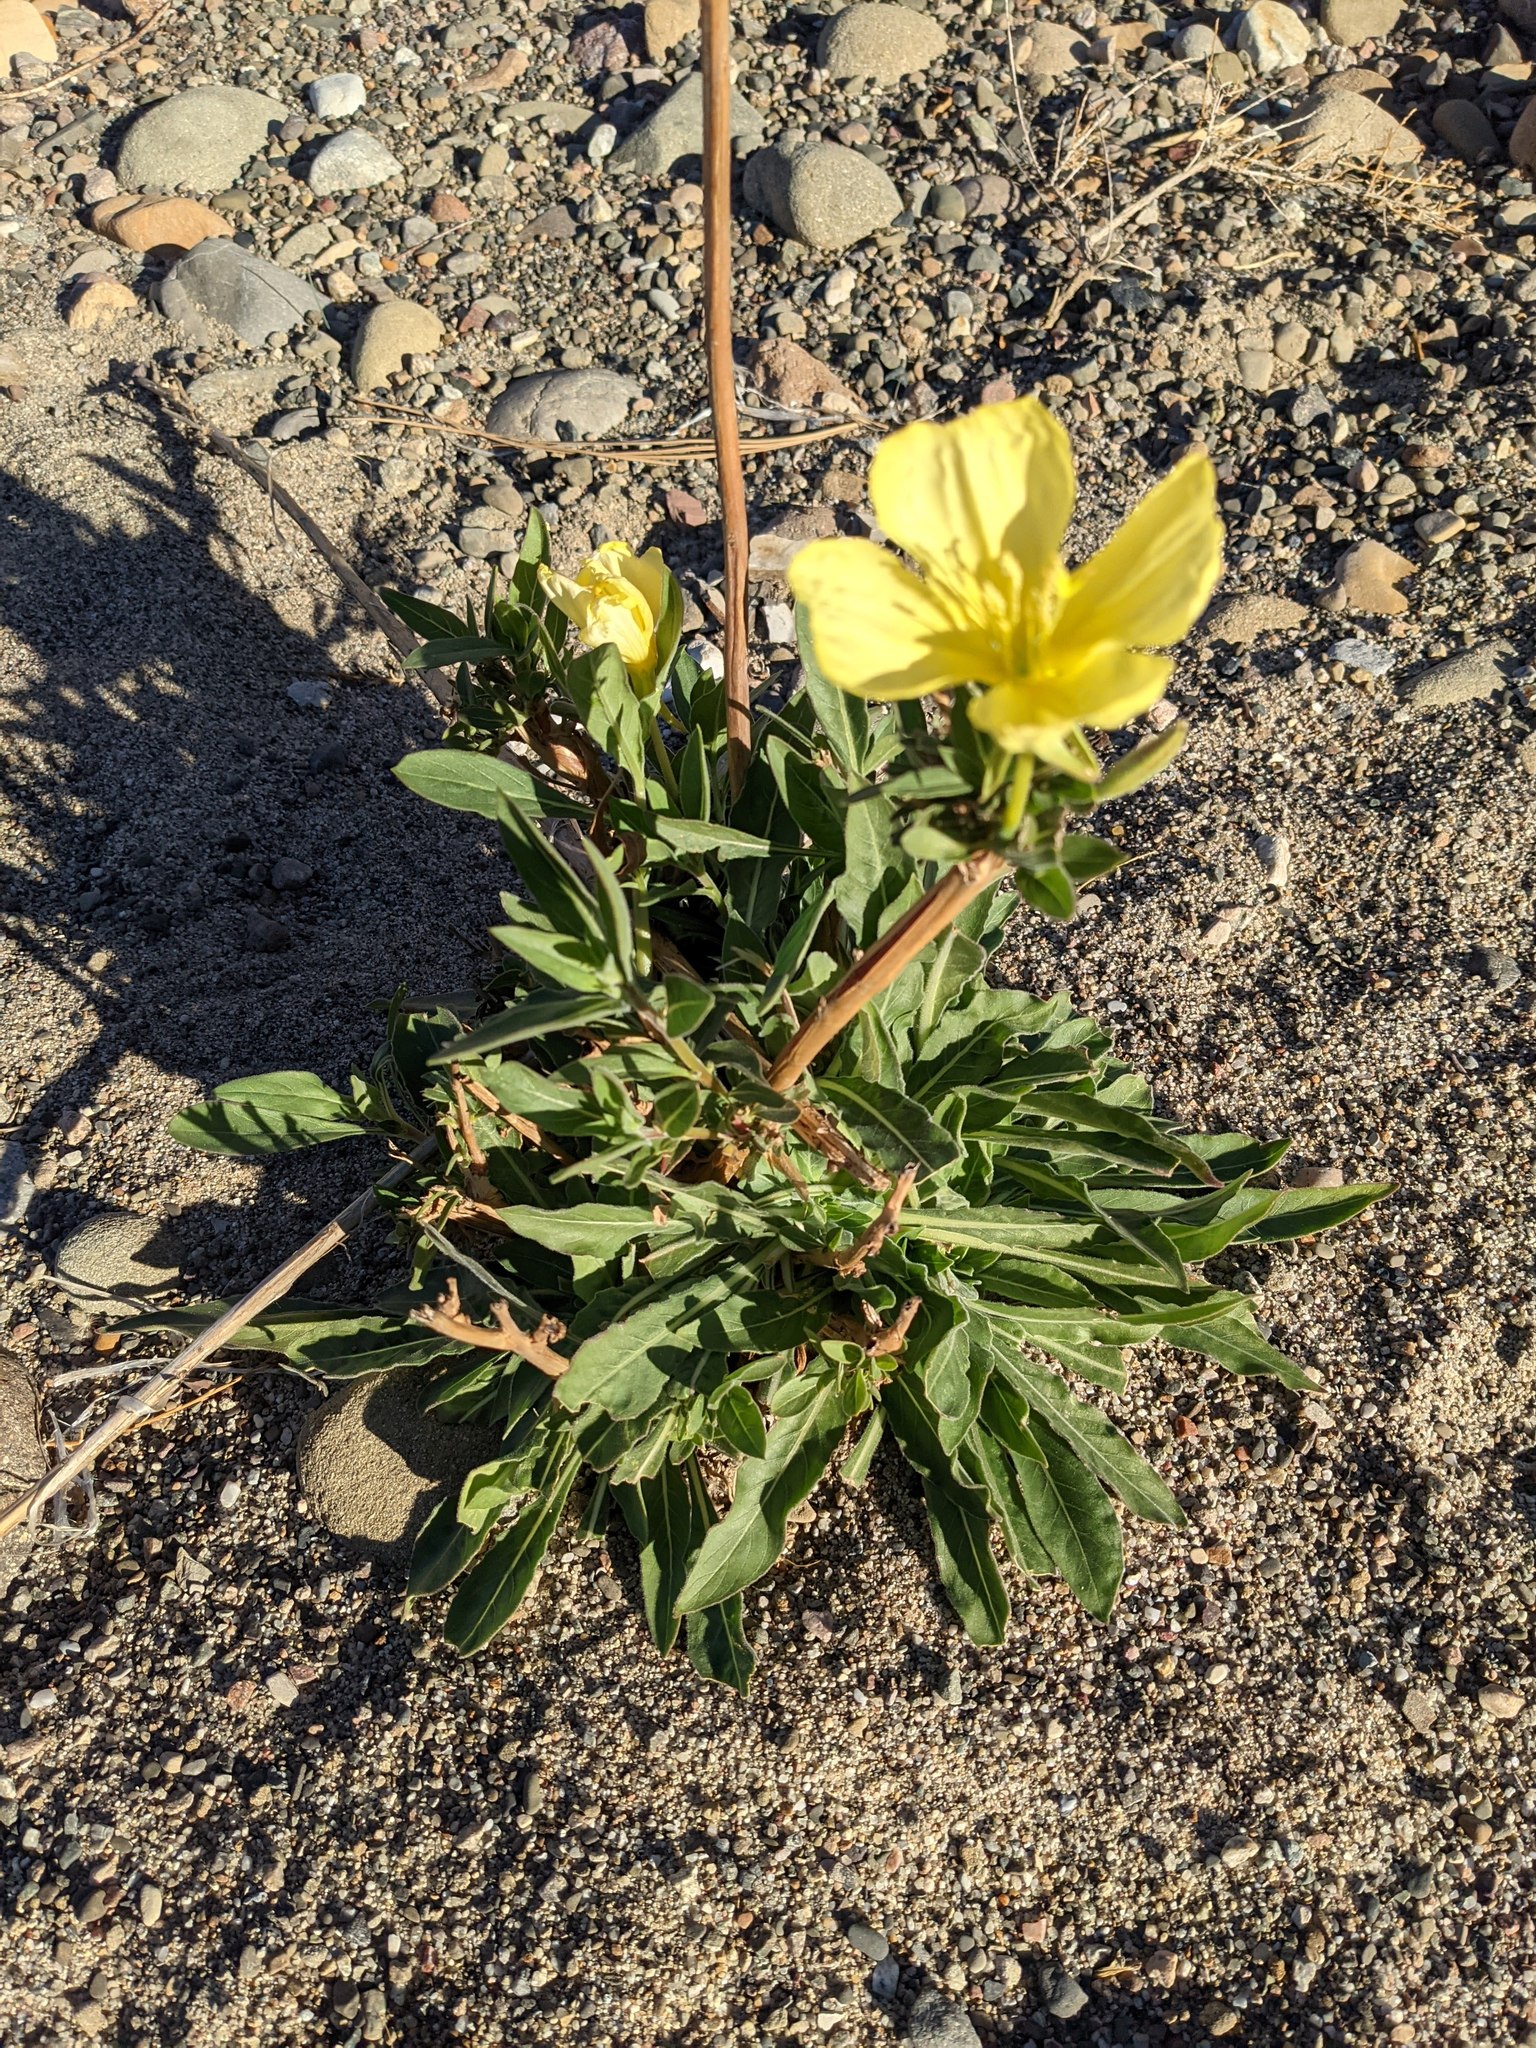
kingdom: Plantae
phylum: Tracheophyta
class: Magnoliopsida
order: Myrtales
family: Onagraceae
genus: Oenothera
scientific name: Oenothera elata
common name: Hooker's evening-primrose
